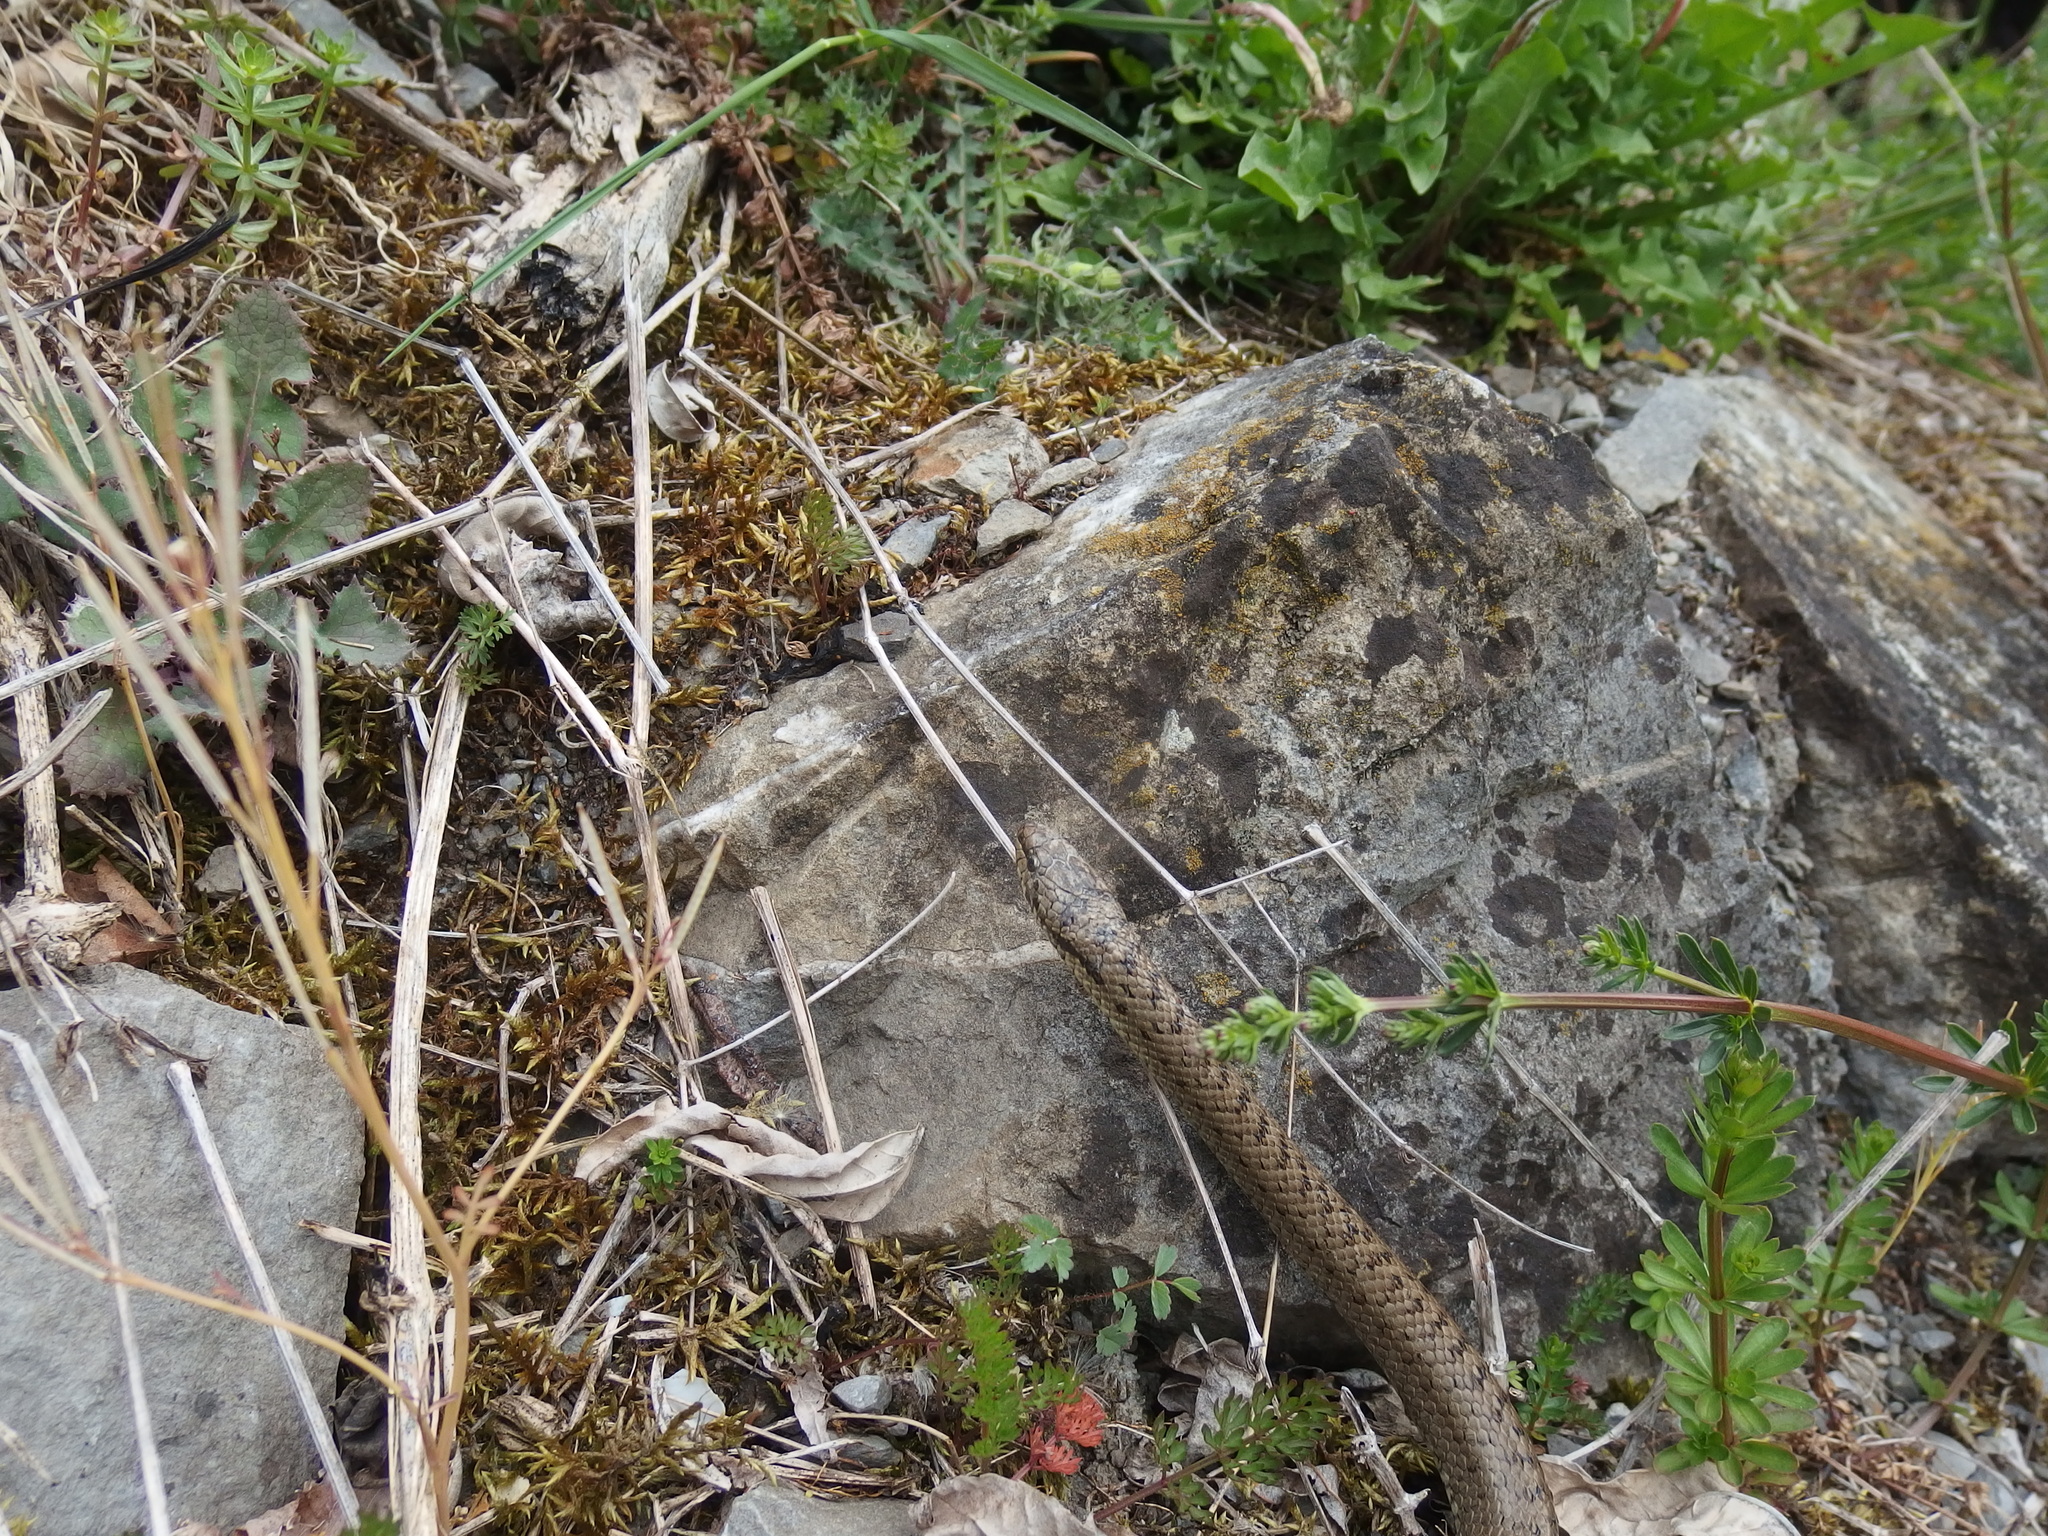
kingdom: Animalia
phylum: Chordata
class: Squamata
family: Colubridae
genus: Coronella
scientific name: Coronella austriaca
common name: Smooth snake
